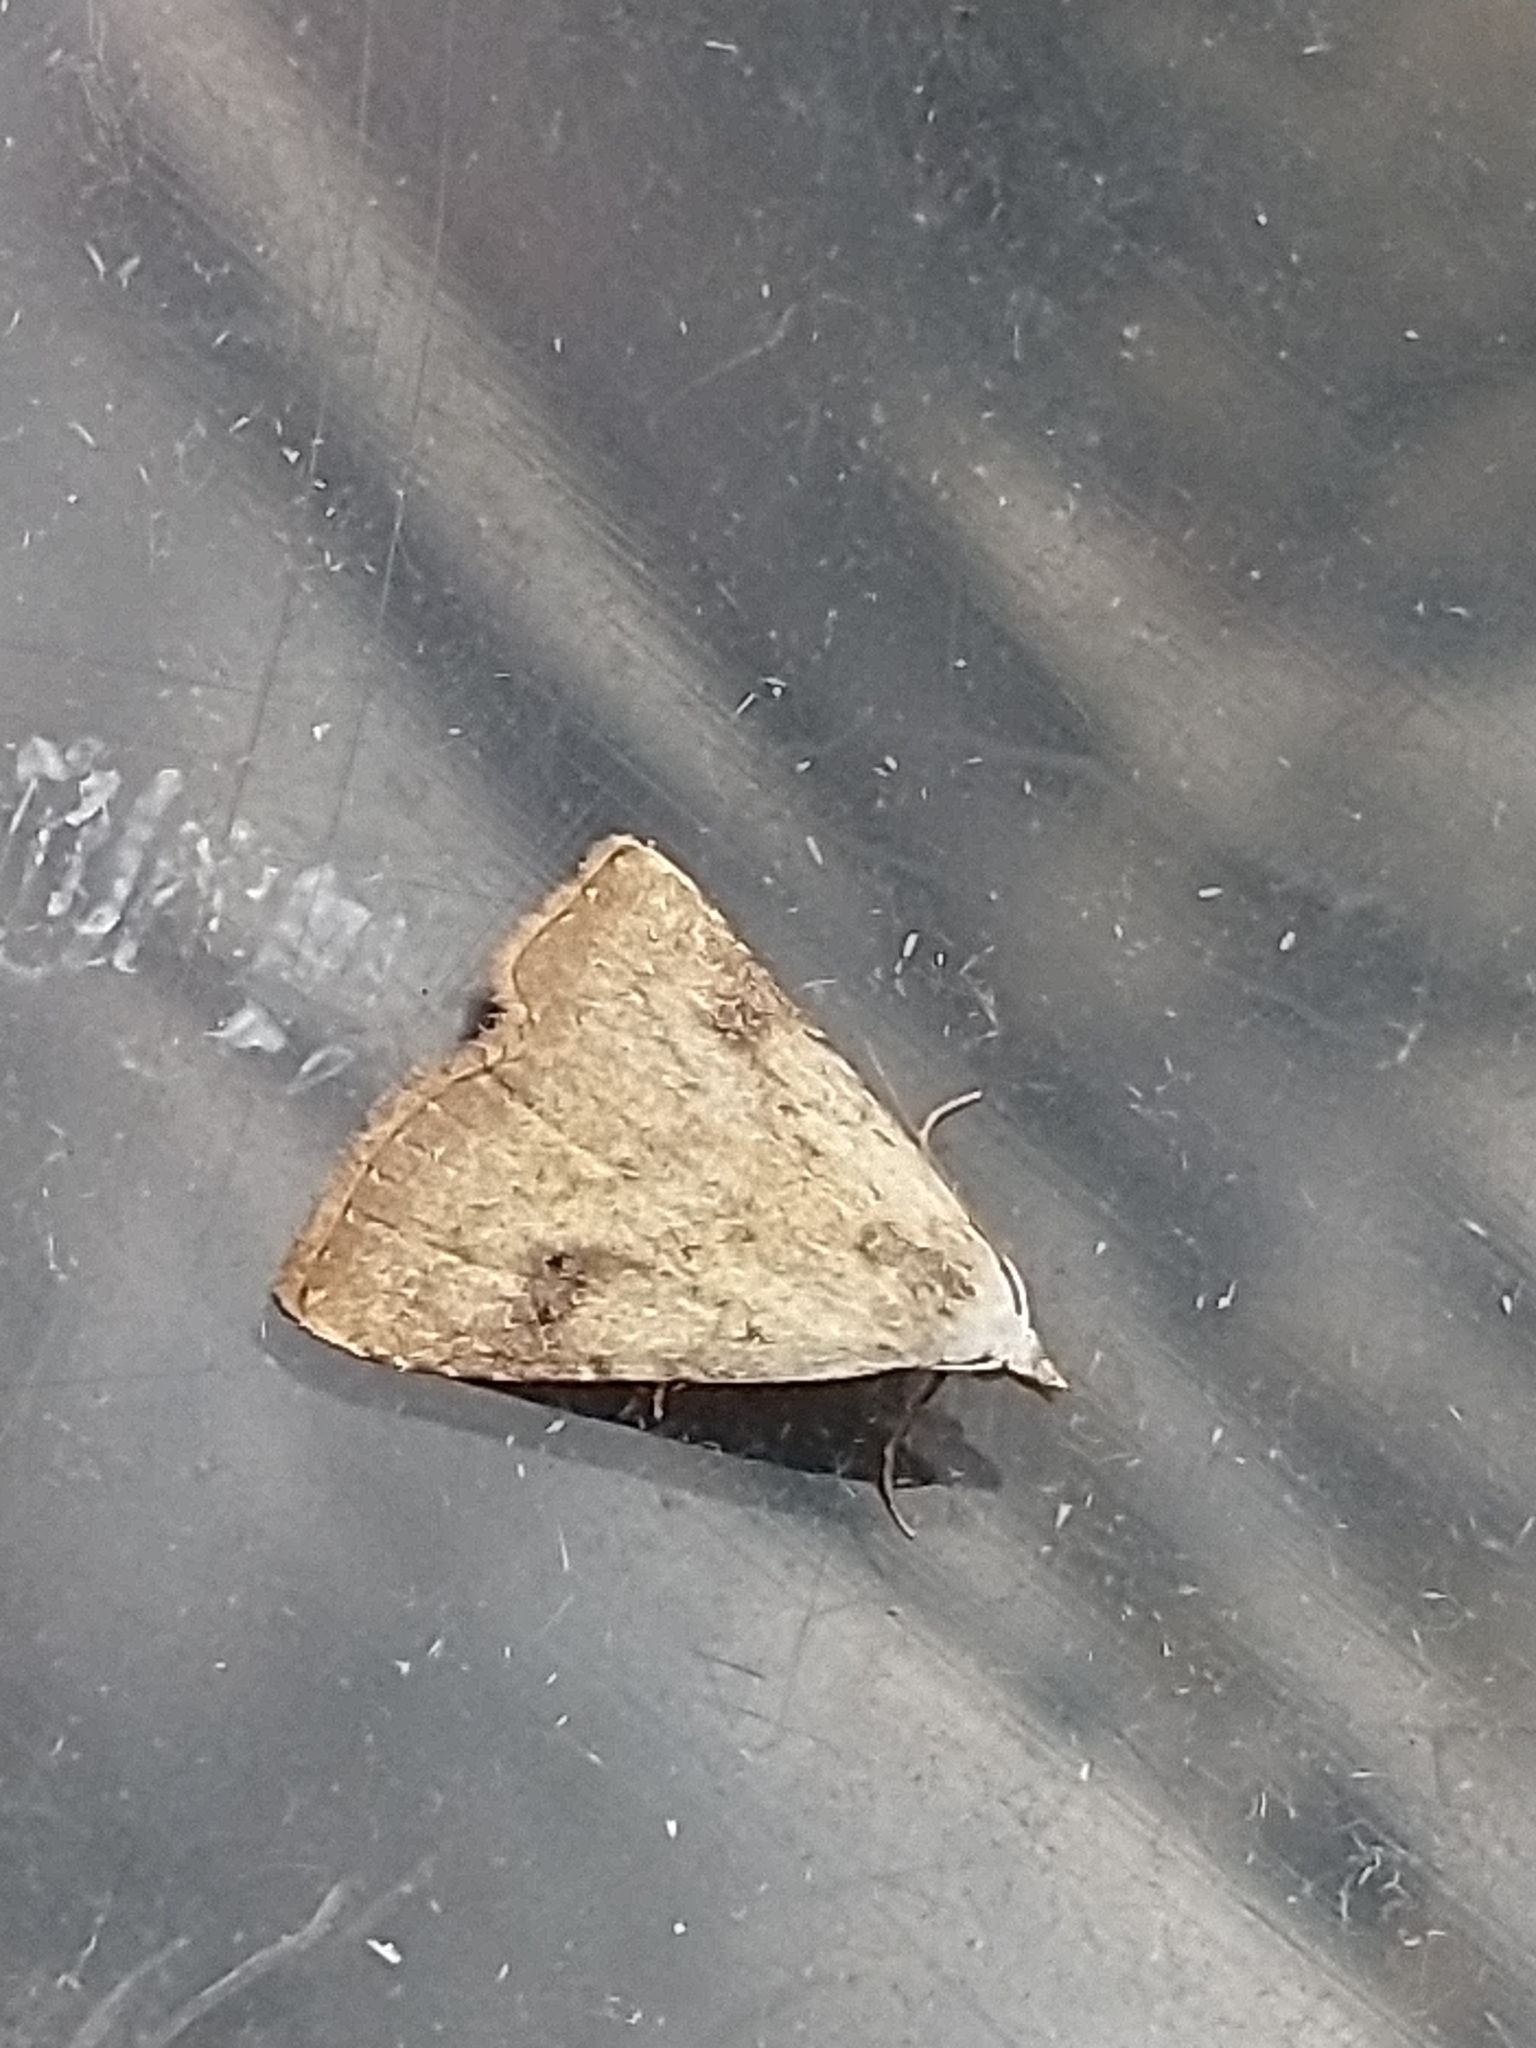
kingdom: Animalia
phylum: Arthropoda
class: Insecta
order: Lepidoptera
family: Erebidae
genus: Rivula
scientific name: Rivula sericealis
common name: Straw dot
